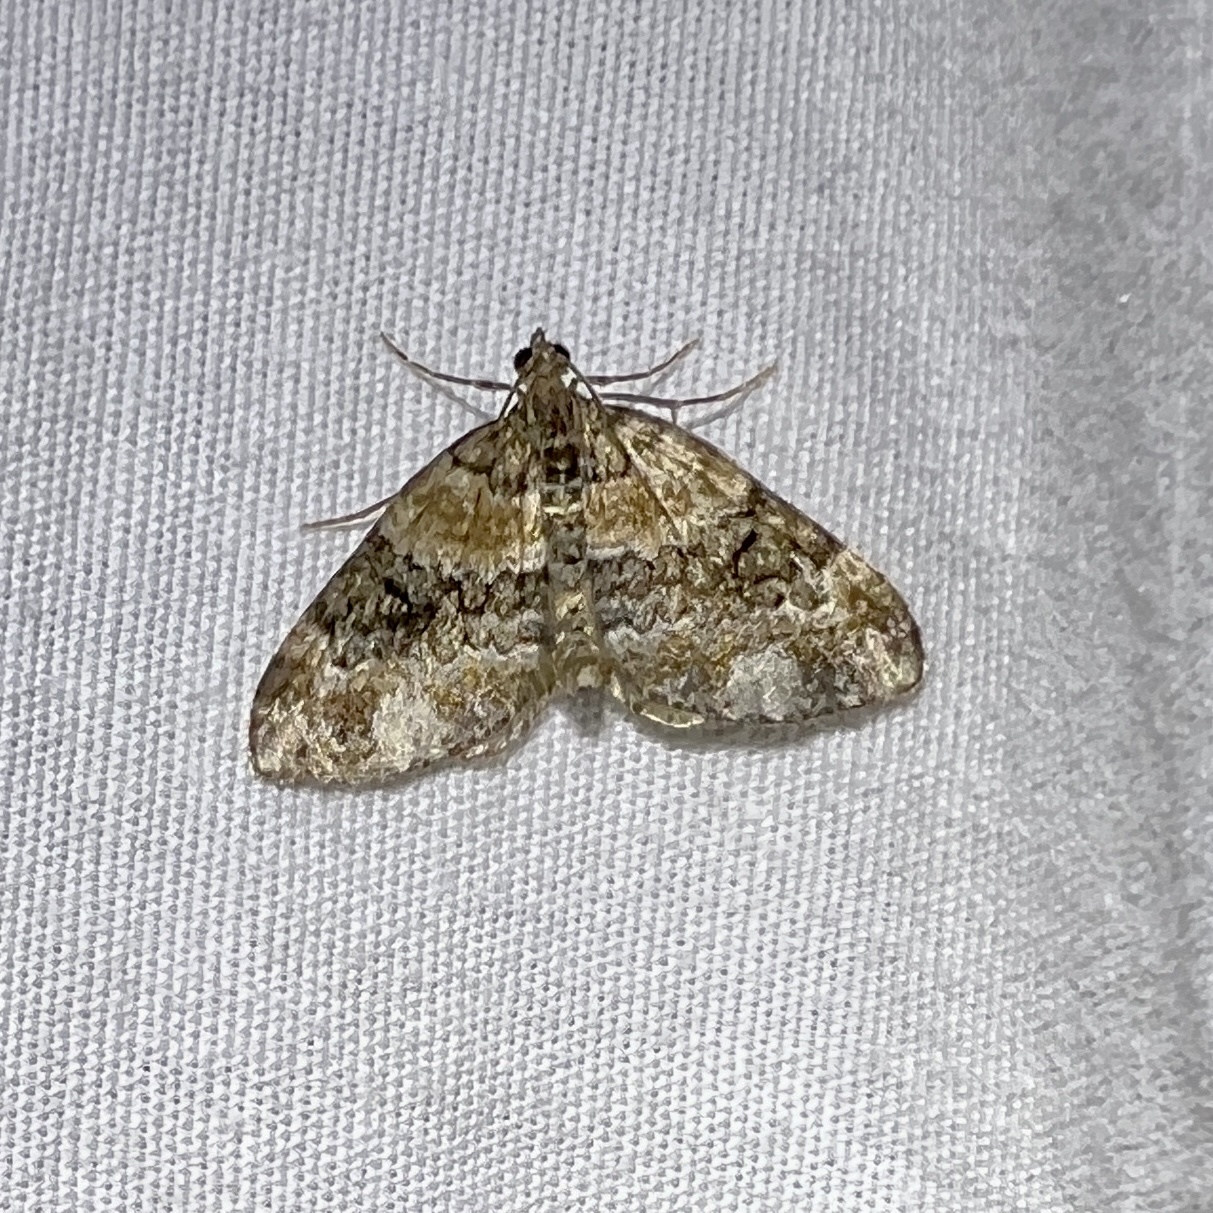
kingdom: Animalia
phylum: Arthropoda
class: Insecta
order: Lepidoptera
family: Geometridae
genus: Martania
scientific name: Martania
